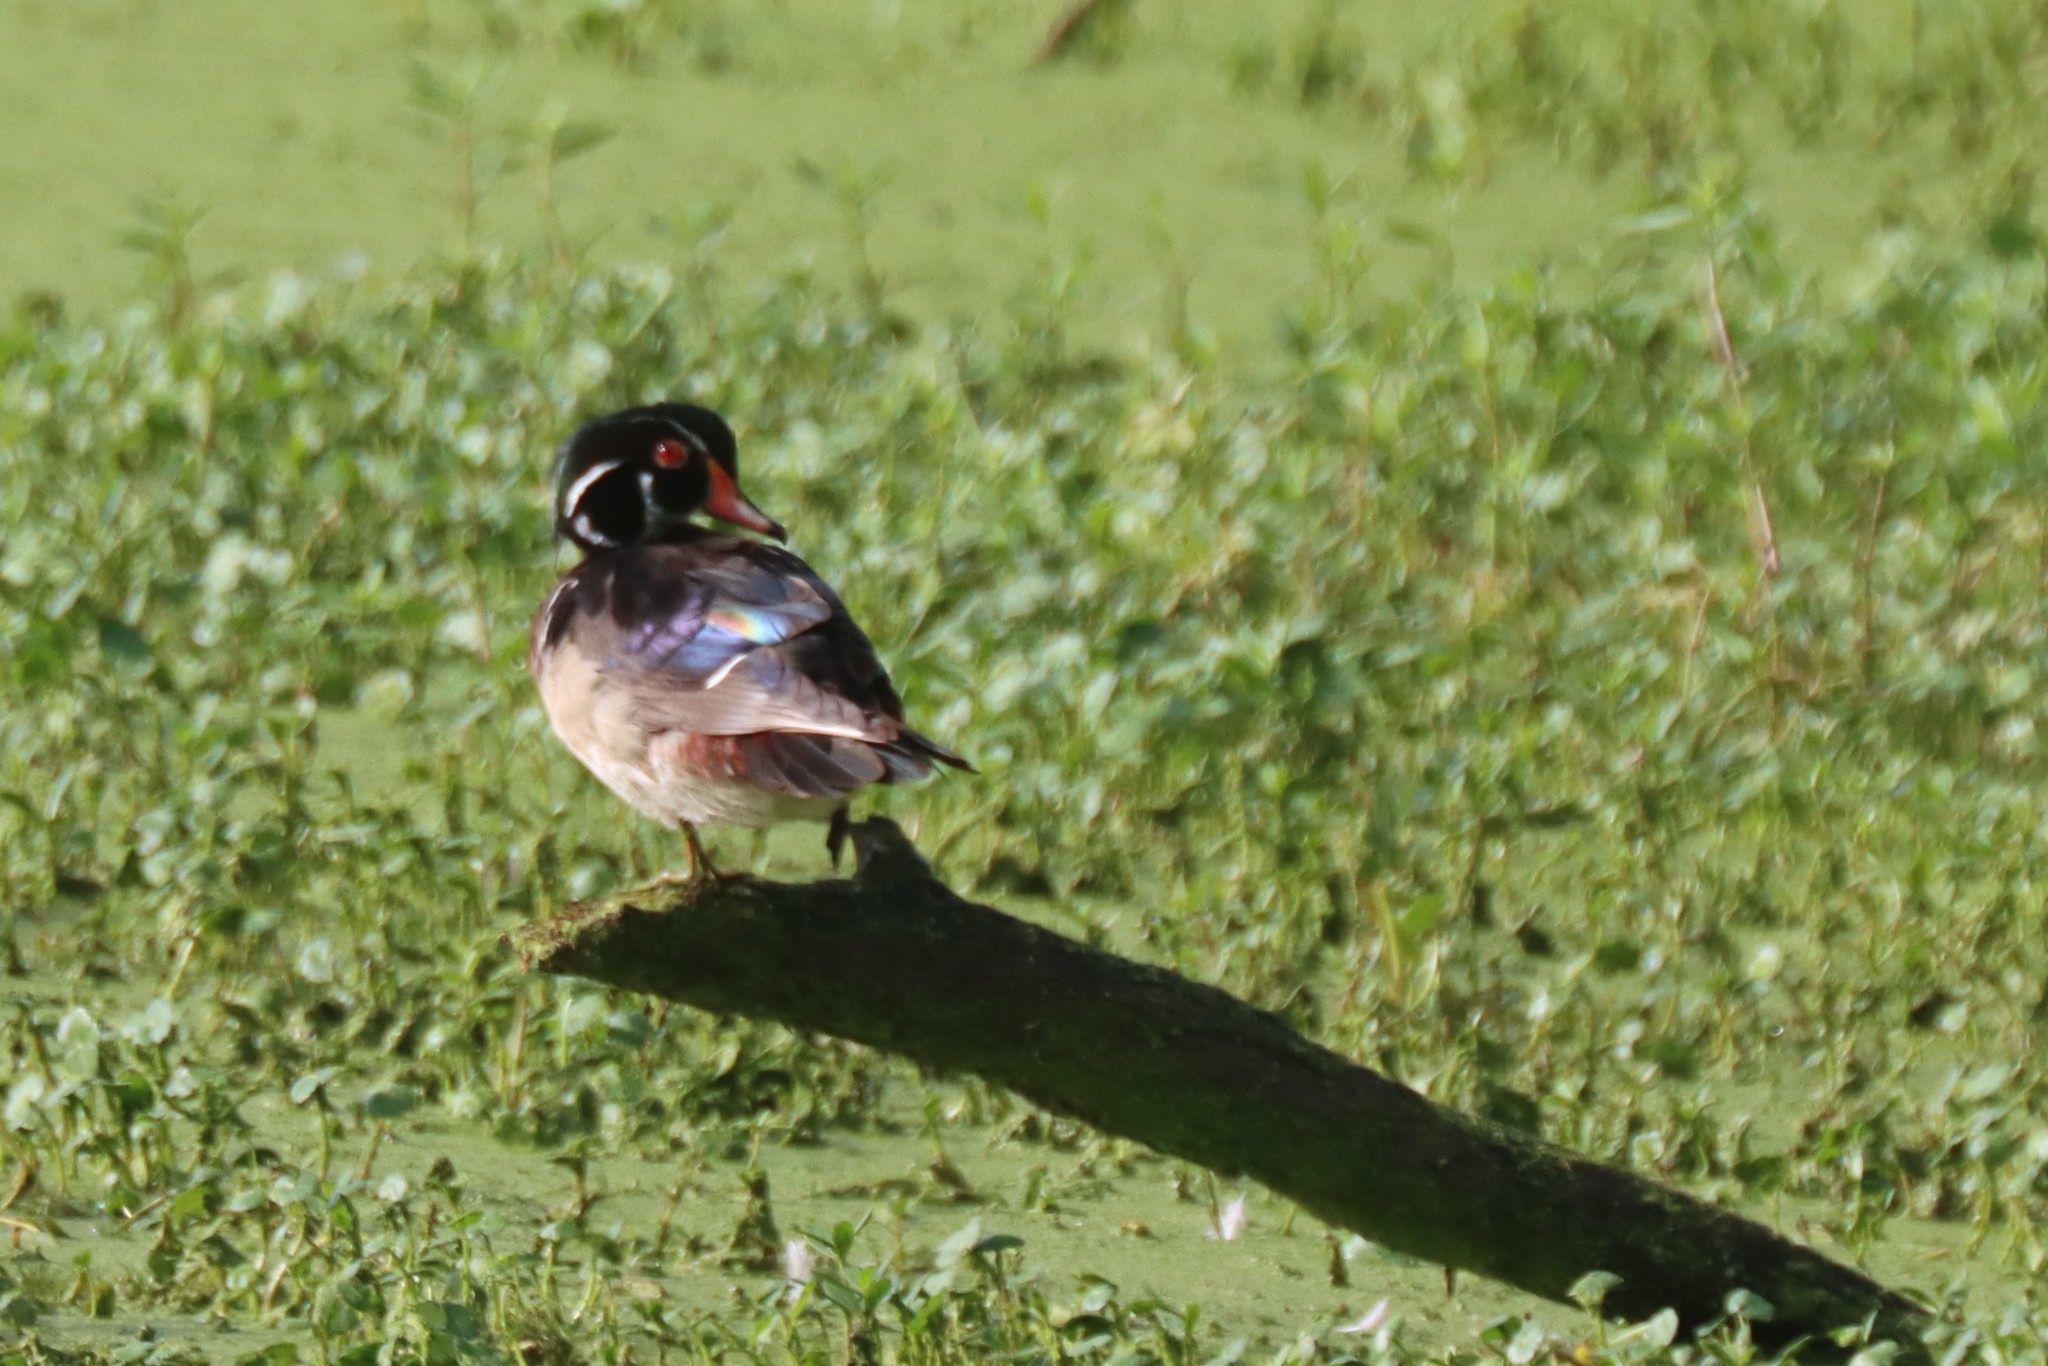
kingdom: Animalia
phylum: Chordata
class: Aves
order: Anseriformes
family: Anatidae
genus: Aix
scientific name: Aix sponsa
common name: Wood duck
